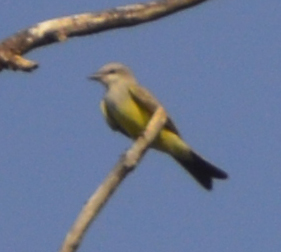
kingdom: Animalia
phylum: Chordata
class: Aves
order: Passeriformes
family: Tyrannidae
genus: Tyrannus
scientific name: Tyrannus verticalis
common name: Western kingbird
